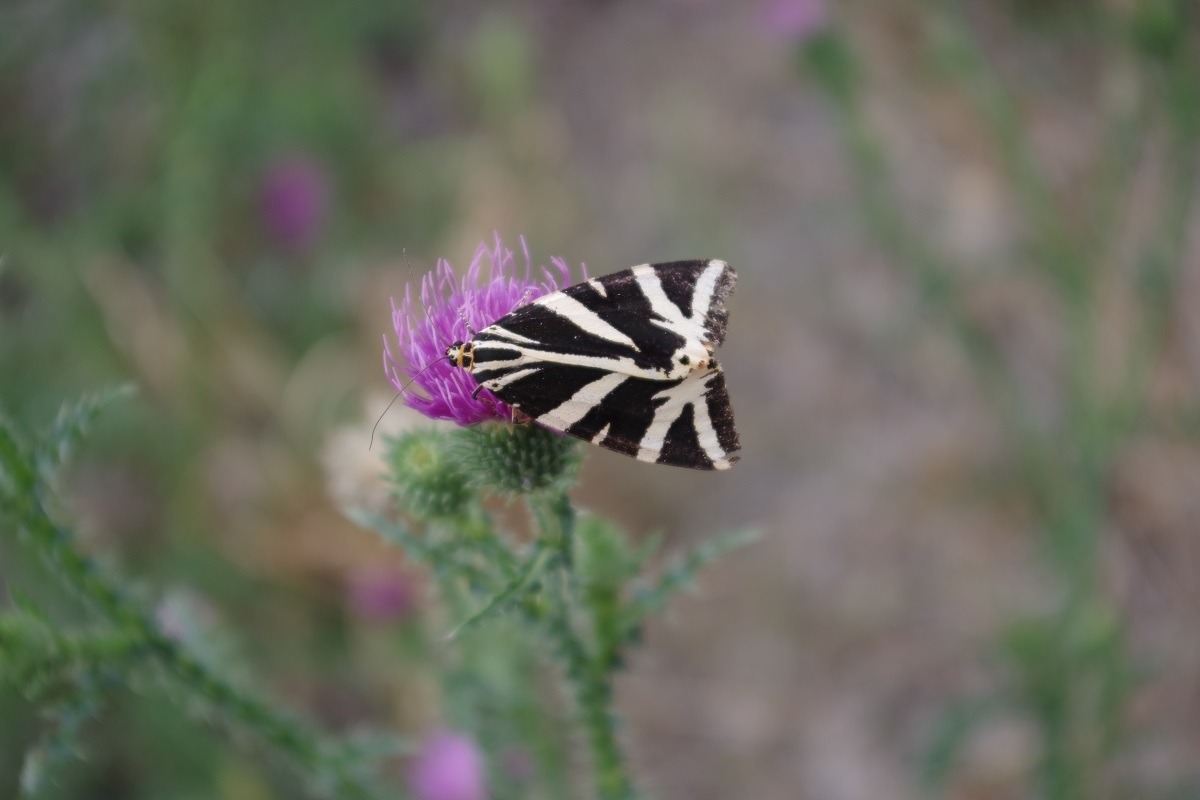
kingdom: Animalia
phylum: Arthropoda
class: Insecta
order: Lepidoptera
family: Erebidae
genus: Euplagia
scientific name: Euplagia quadripunctaria
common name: Jersey tiger
